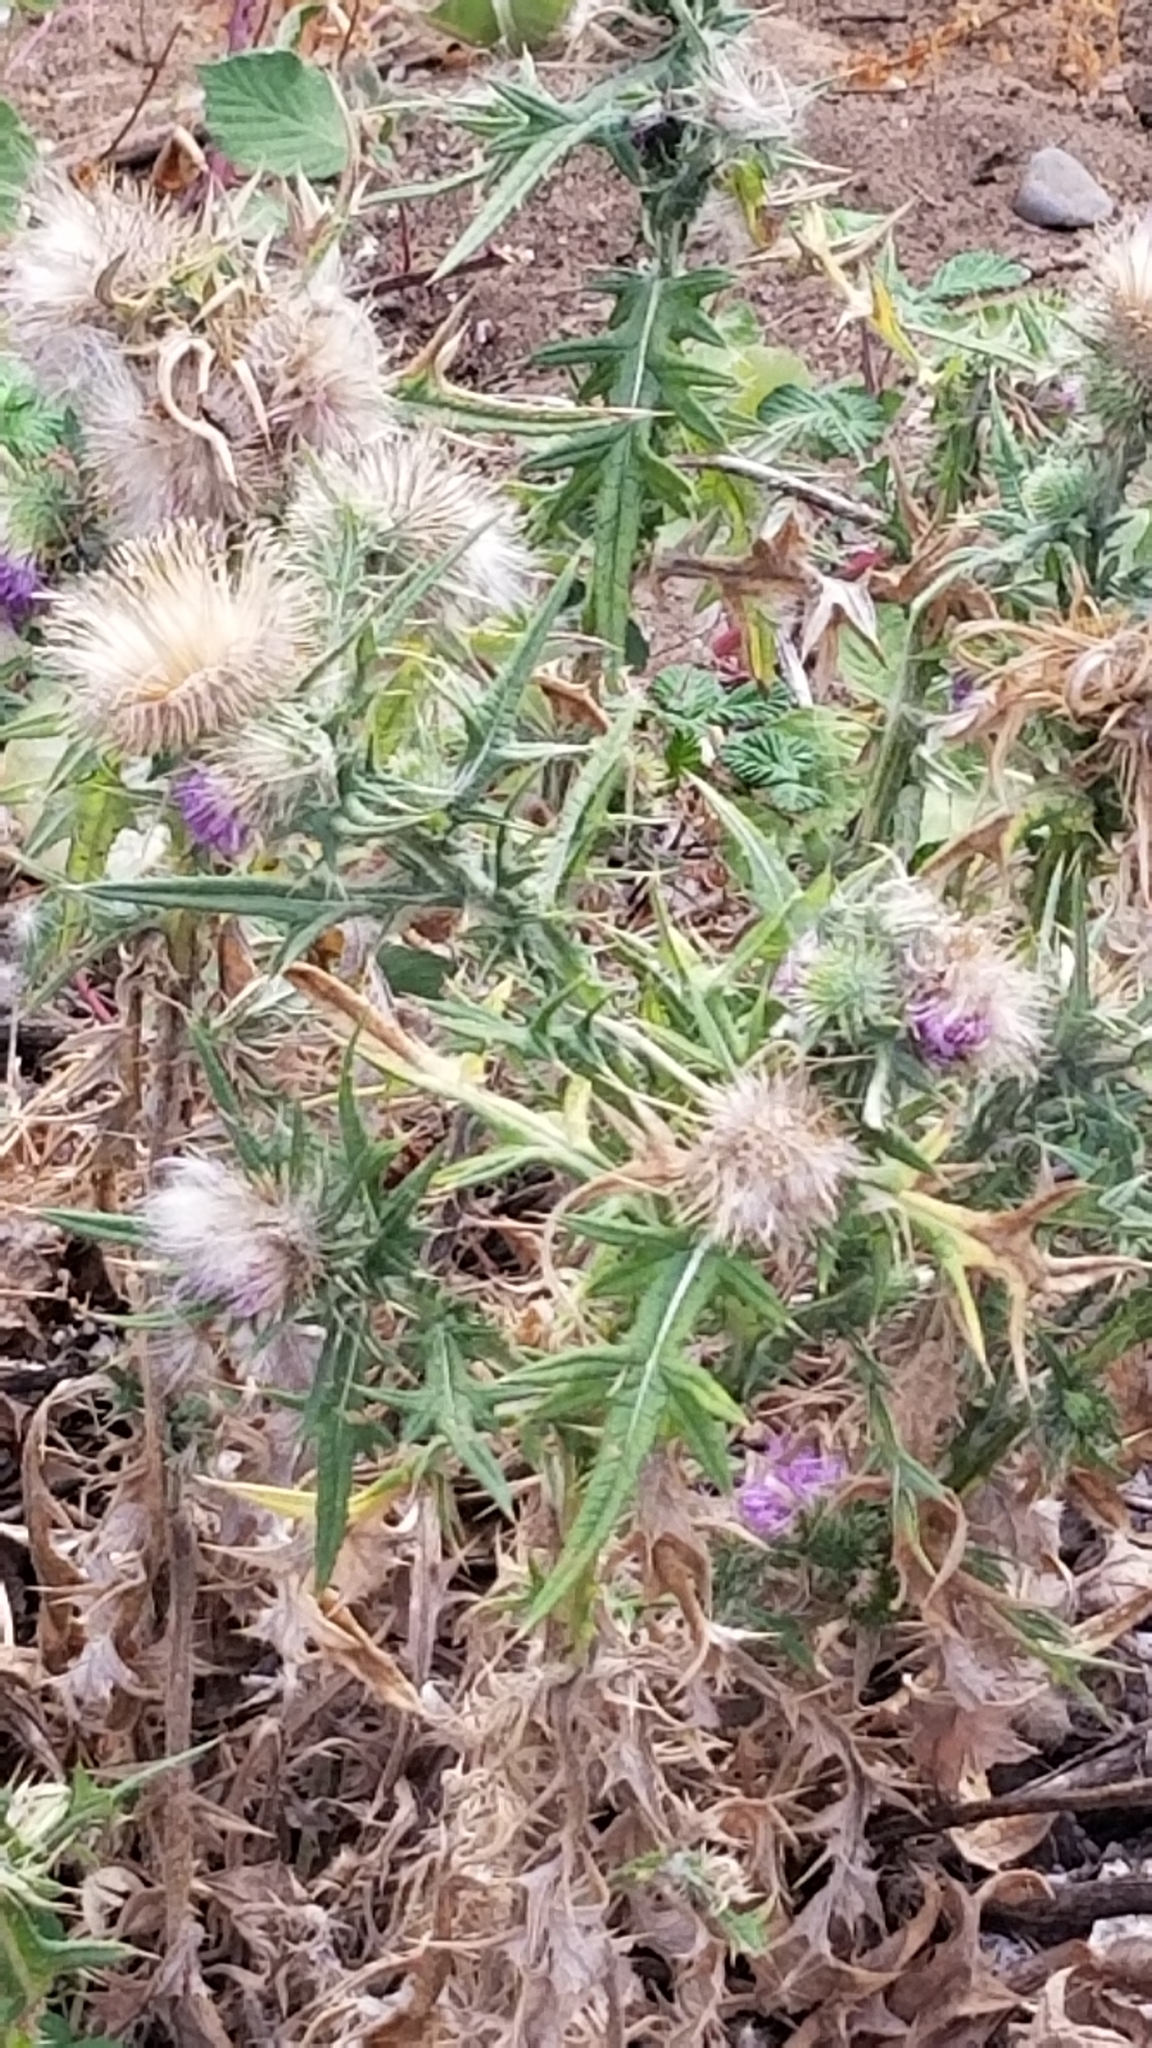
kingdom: Plantae
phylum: Tracheophyta
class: Magnoliopsida
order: Asterales
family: Asteraceae
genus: Cirsium
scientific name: Cirsium vulgare
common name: Bull thistle
